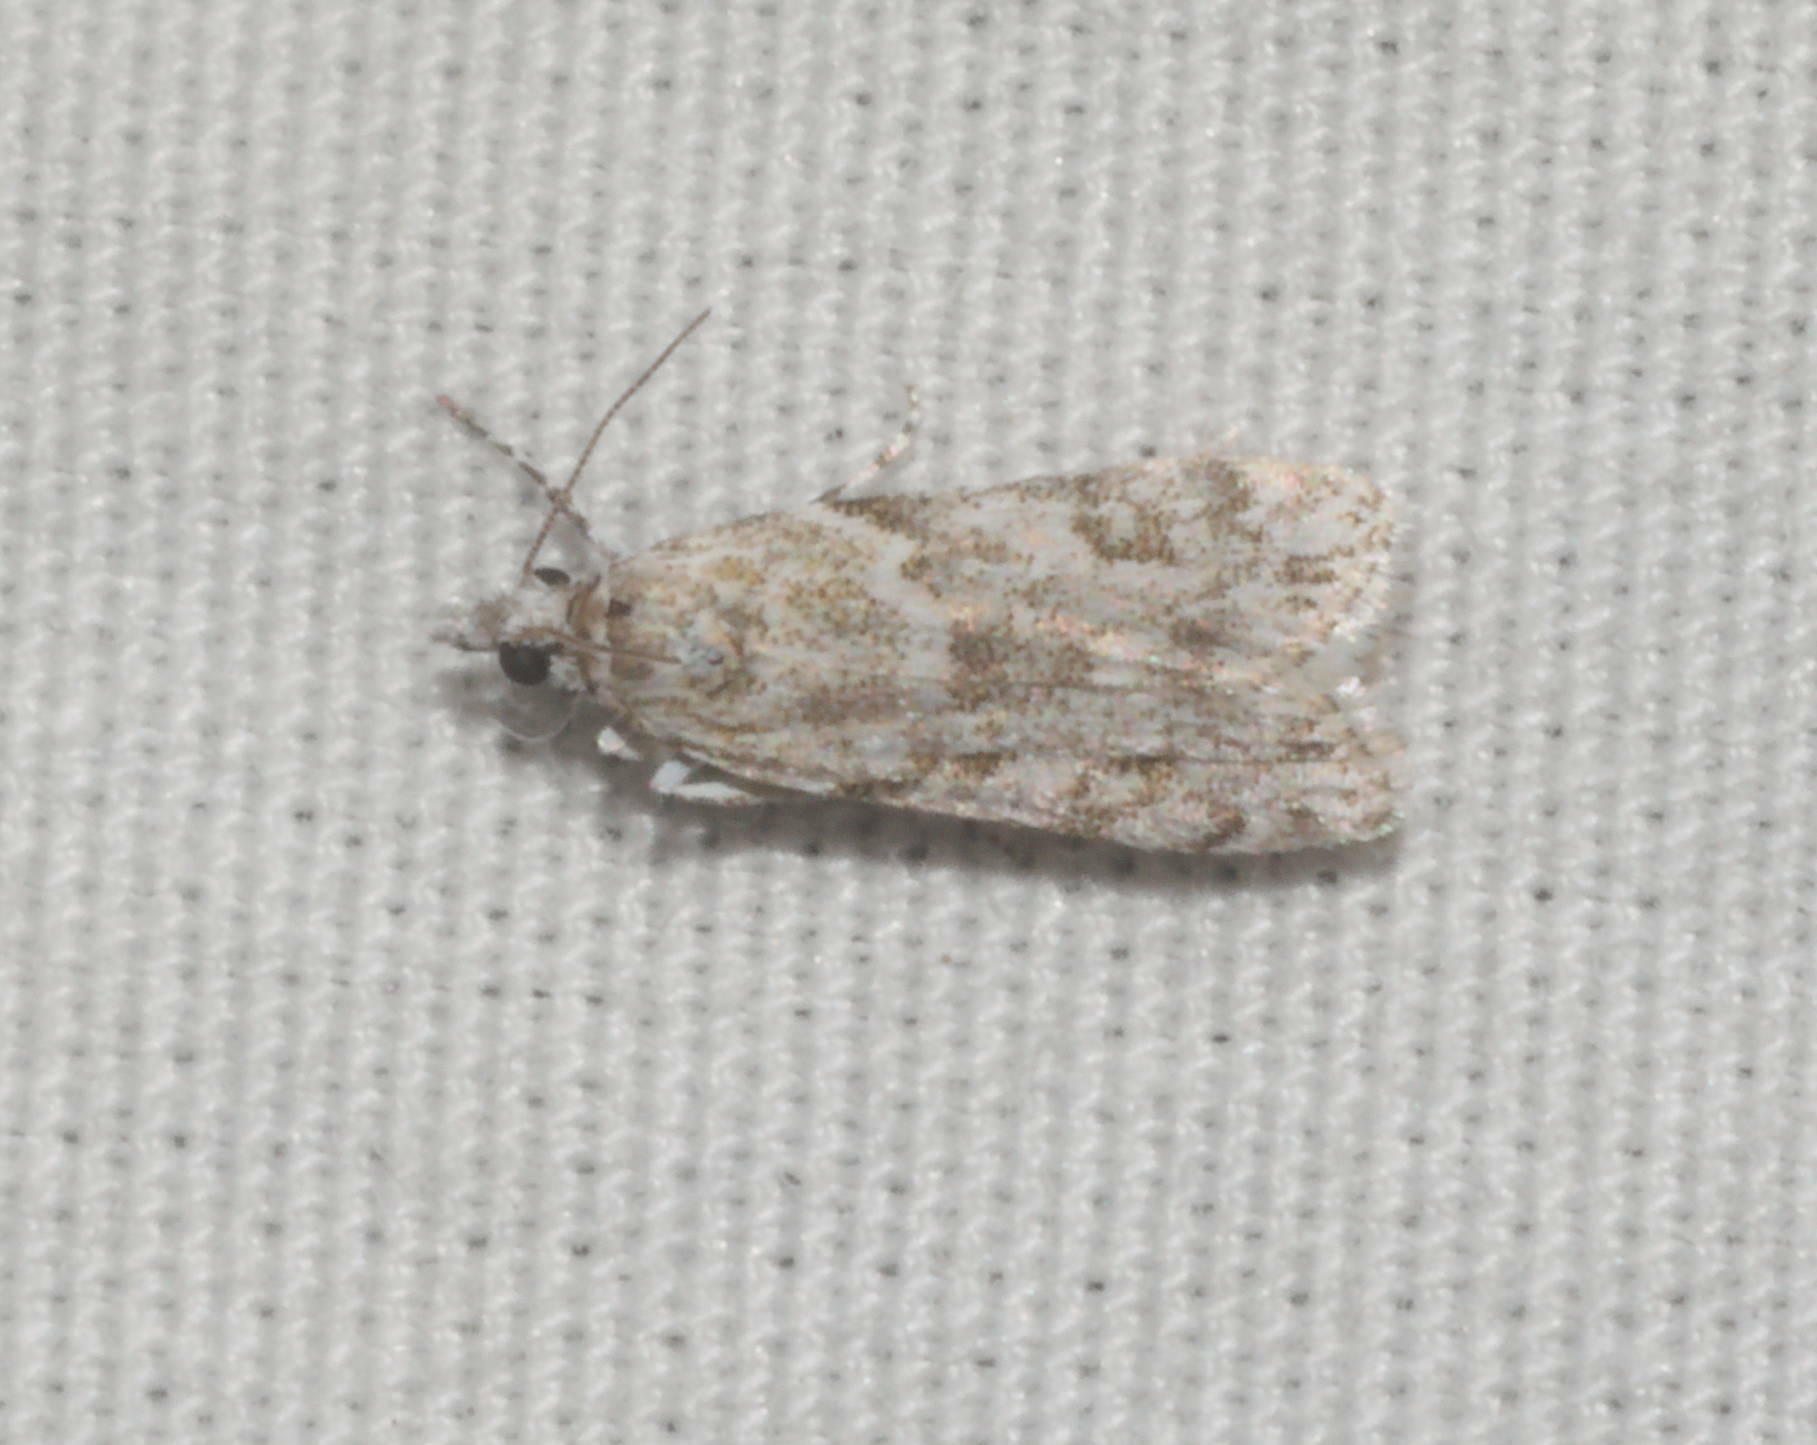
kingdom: Animalia
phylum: Arthropoda
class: Insecta
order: Lepidoptera
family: Crambidae
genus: Eudonia
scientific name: Eudonia geraea
